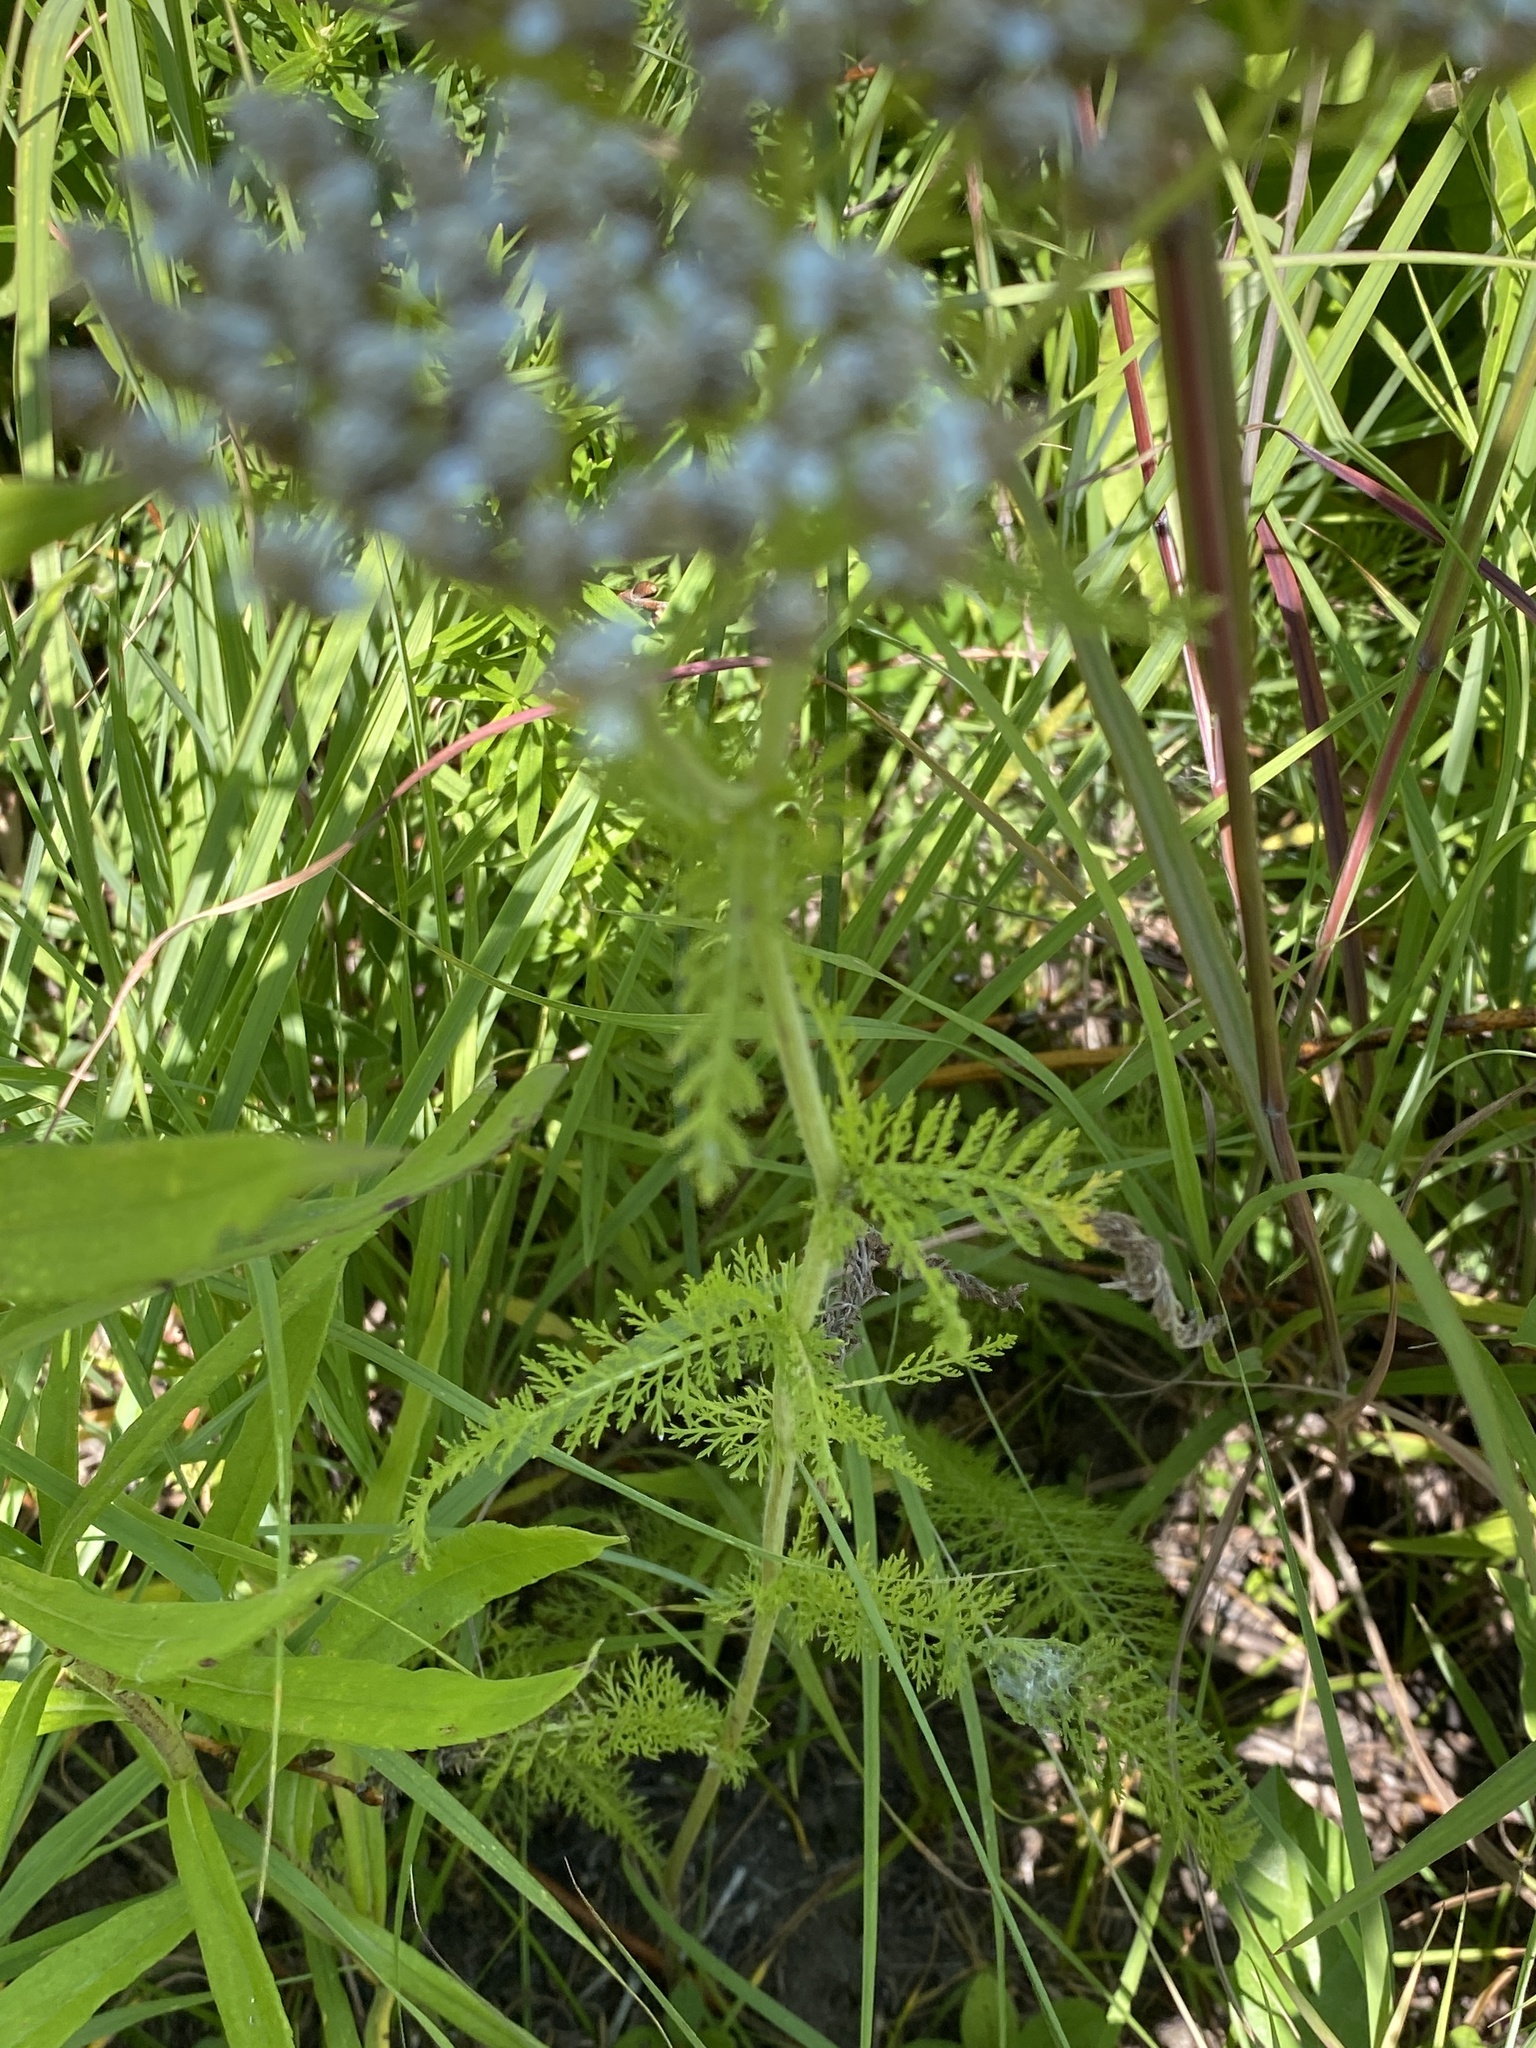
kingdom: Plantae
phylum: Tracheophyta
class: Magnoliopsida
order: Asterales
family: Asteraceae
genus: Achillea
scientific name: Achillea millefolium
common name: Yarrow
